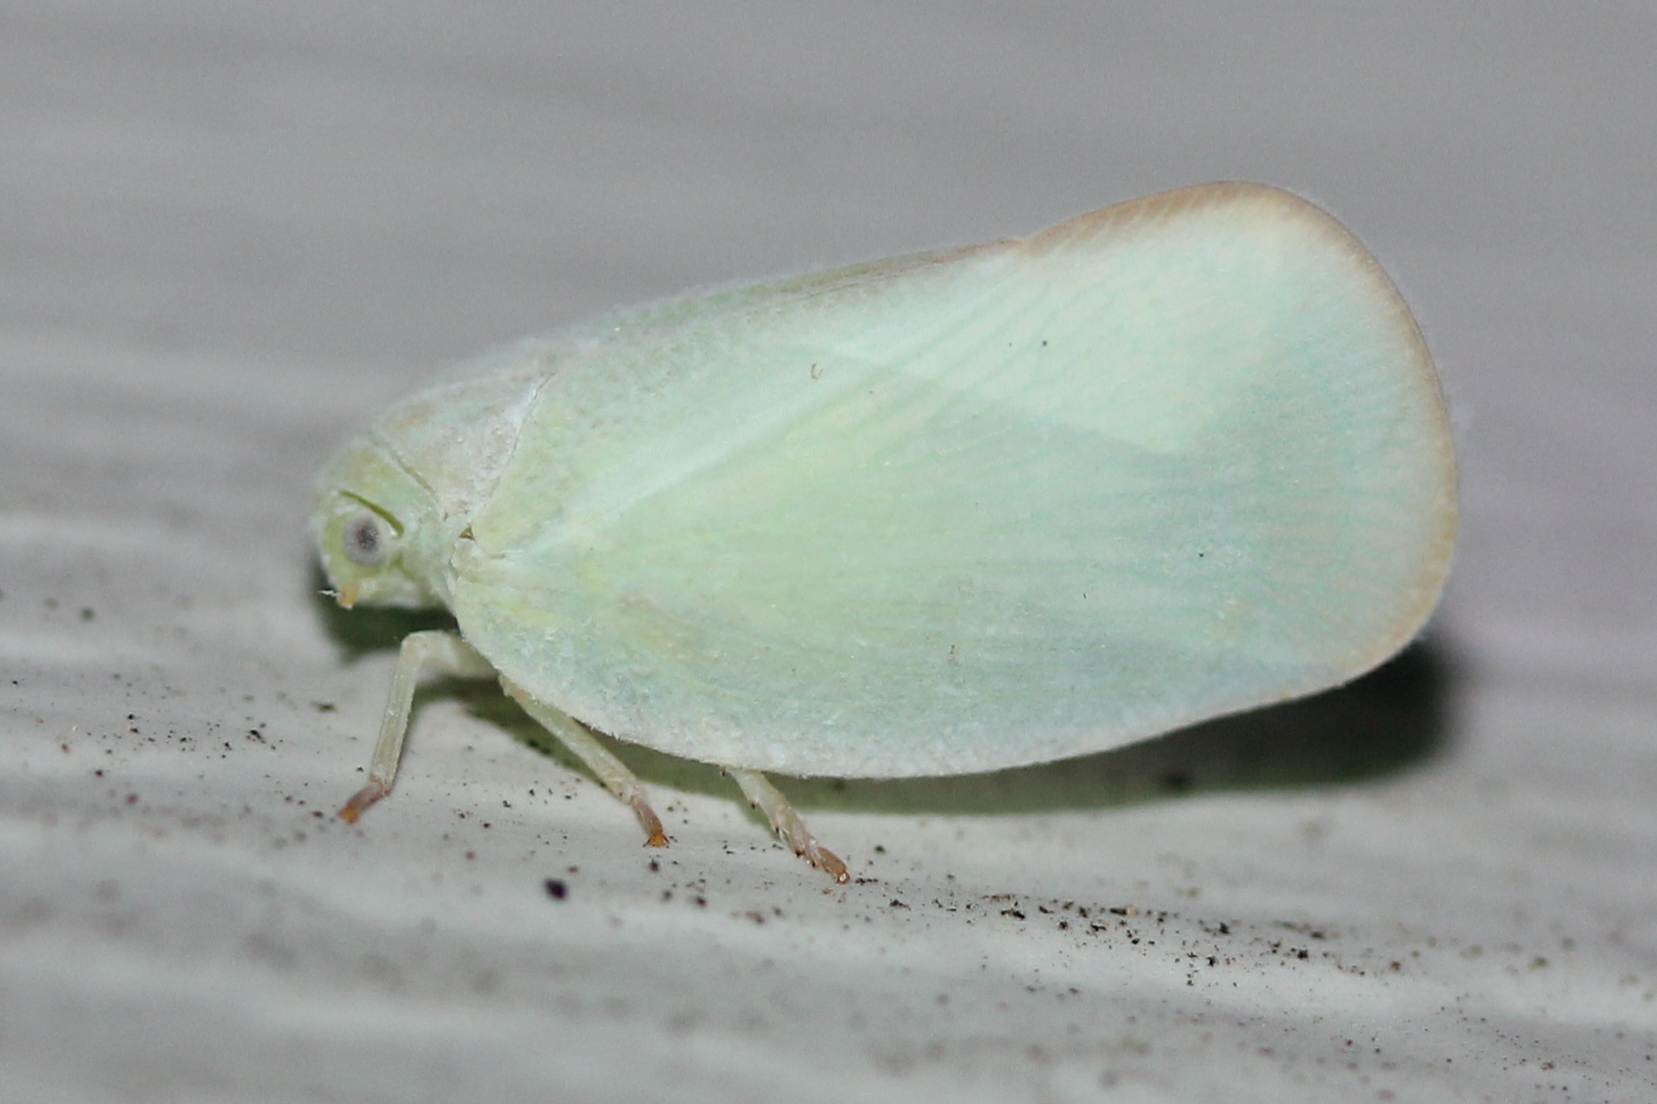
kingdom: Animalia
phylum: Arthropoda
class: Insecta
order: Hemiptera
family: Flatidae
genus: Ormenoides
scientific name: Ormenoides venusta
